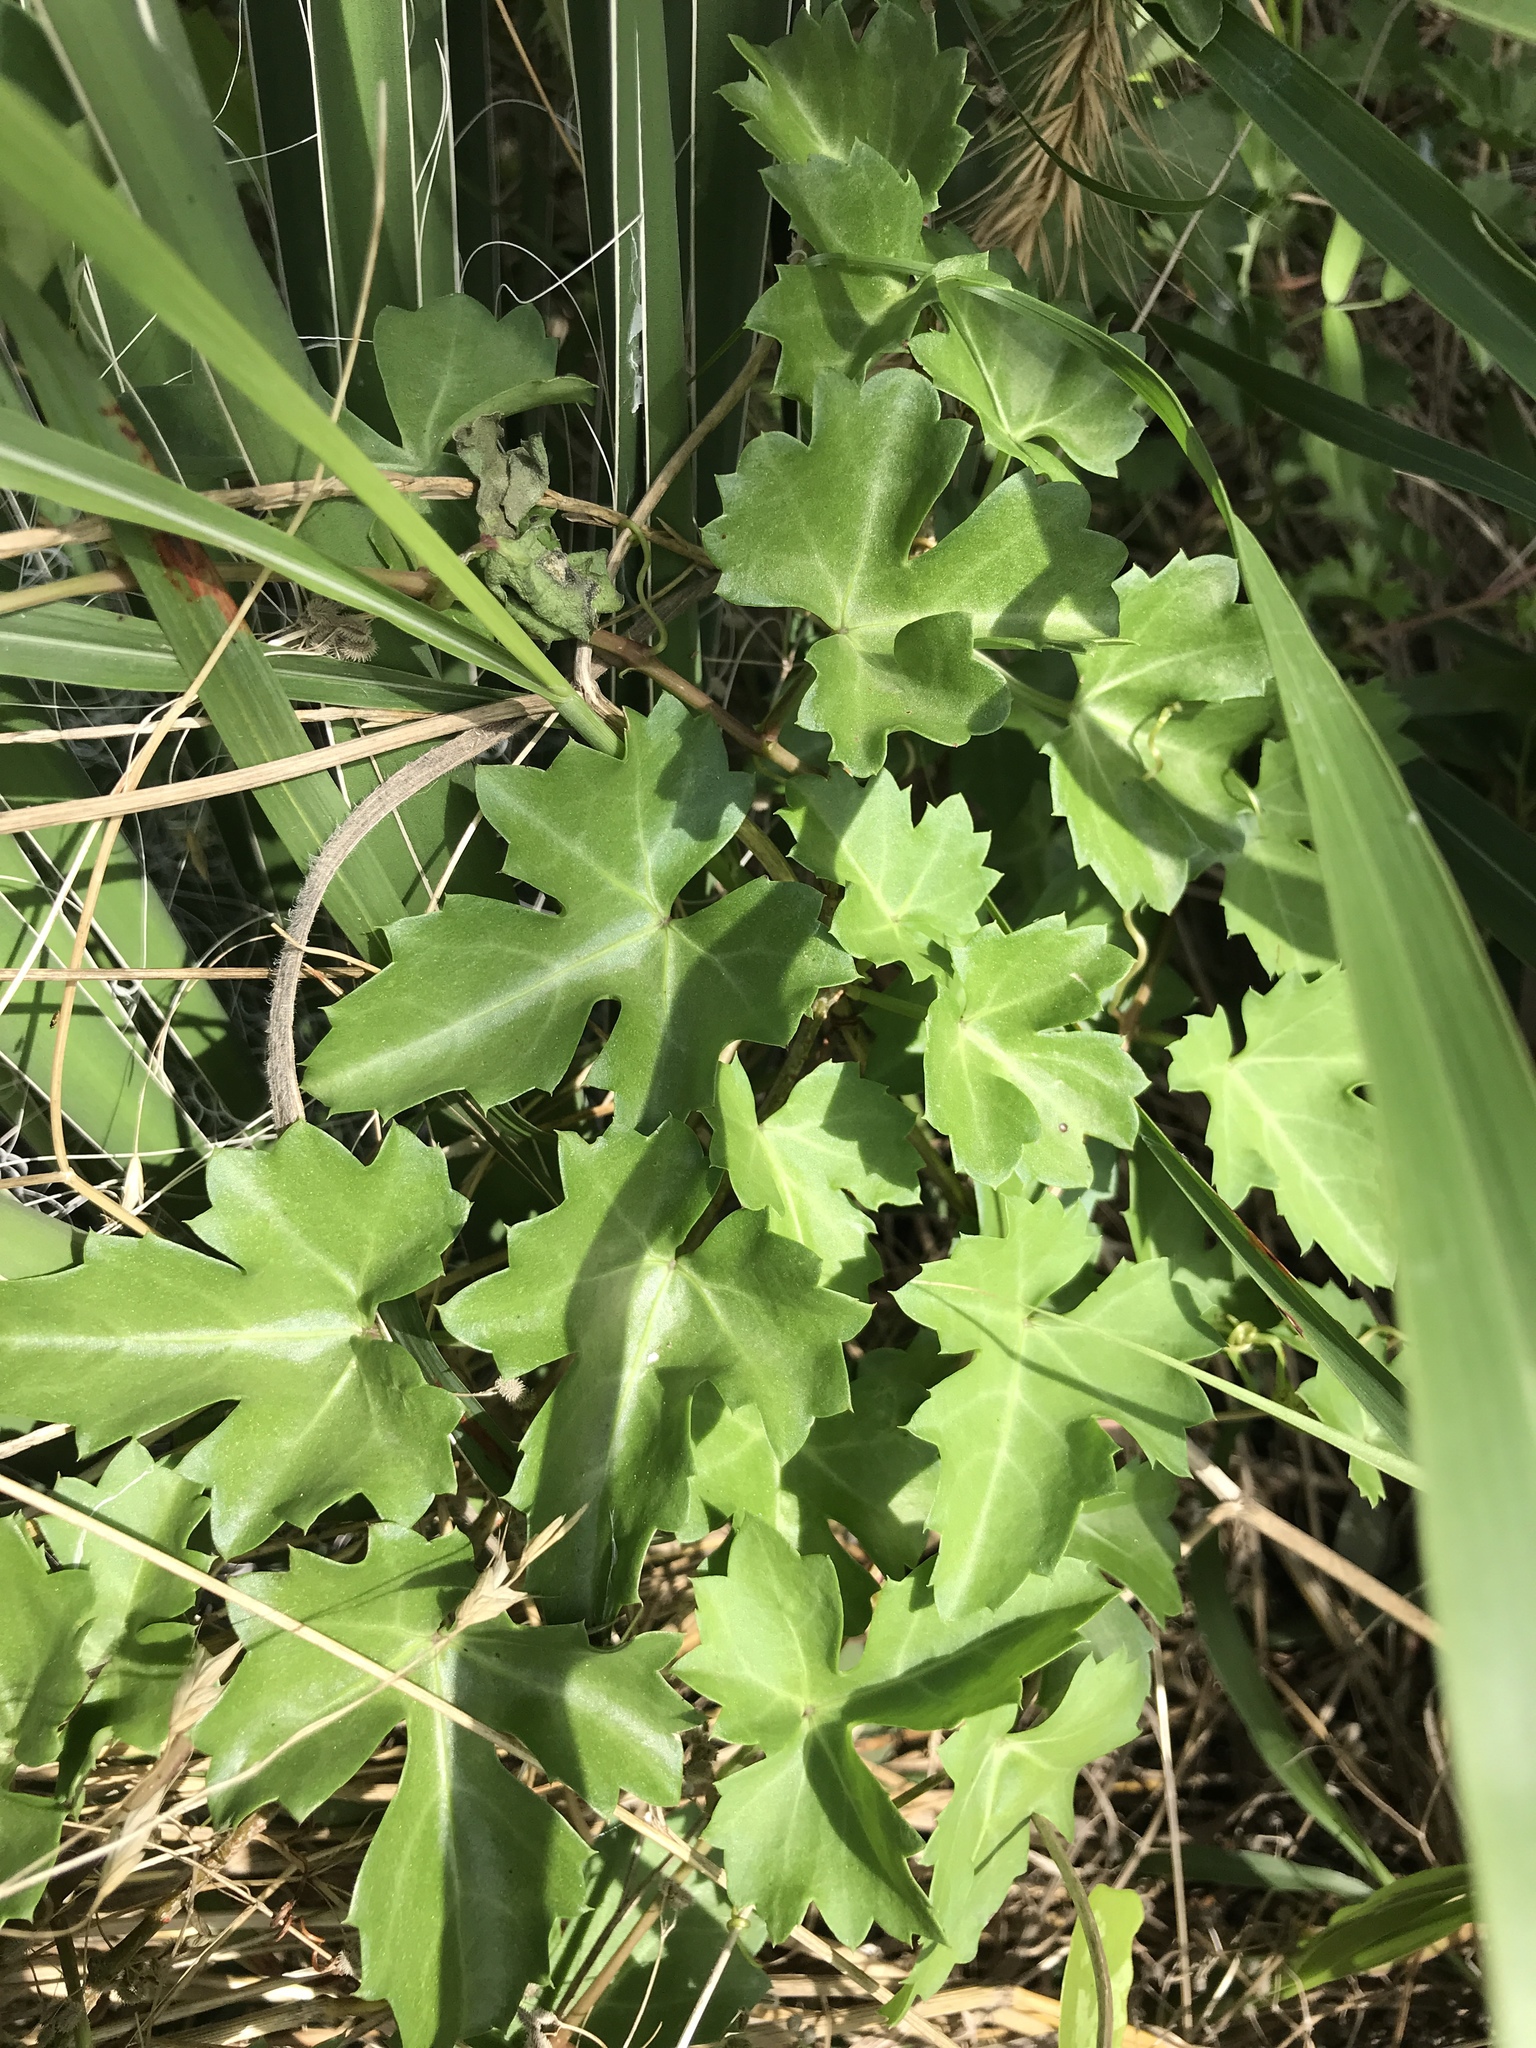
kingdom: Plantae
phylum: Tracheophyta
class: Magnoliopsida
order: Vitales
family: Vitaceae
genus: Cissus
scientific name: Cissus trifoliata
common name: Vine-sorrel
